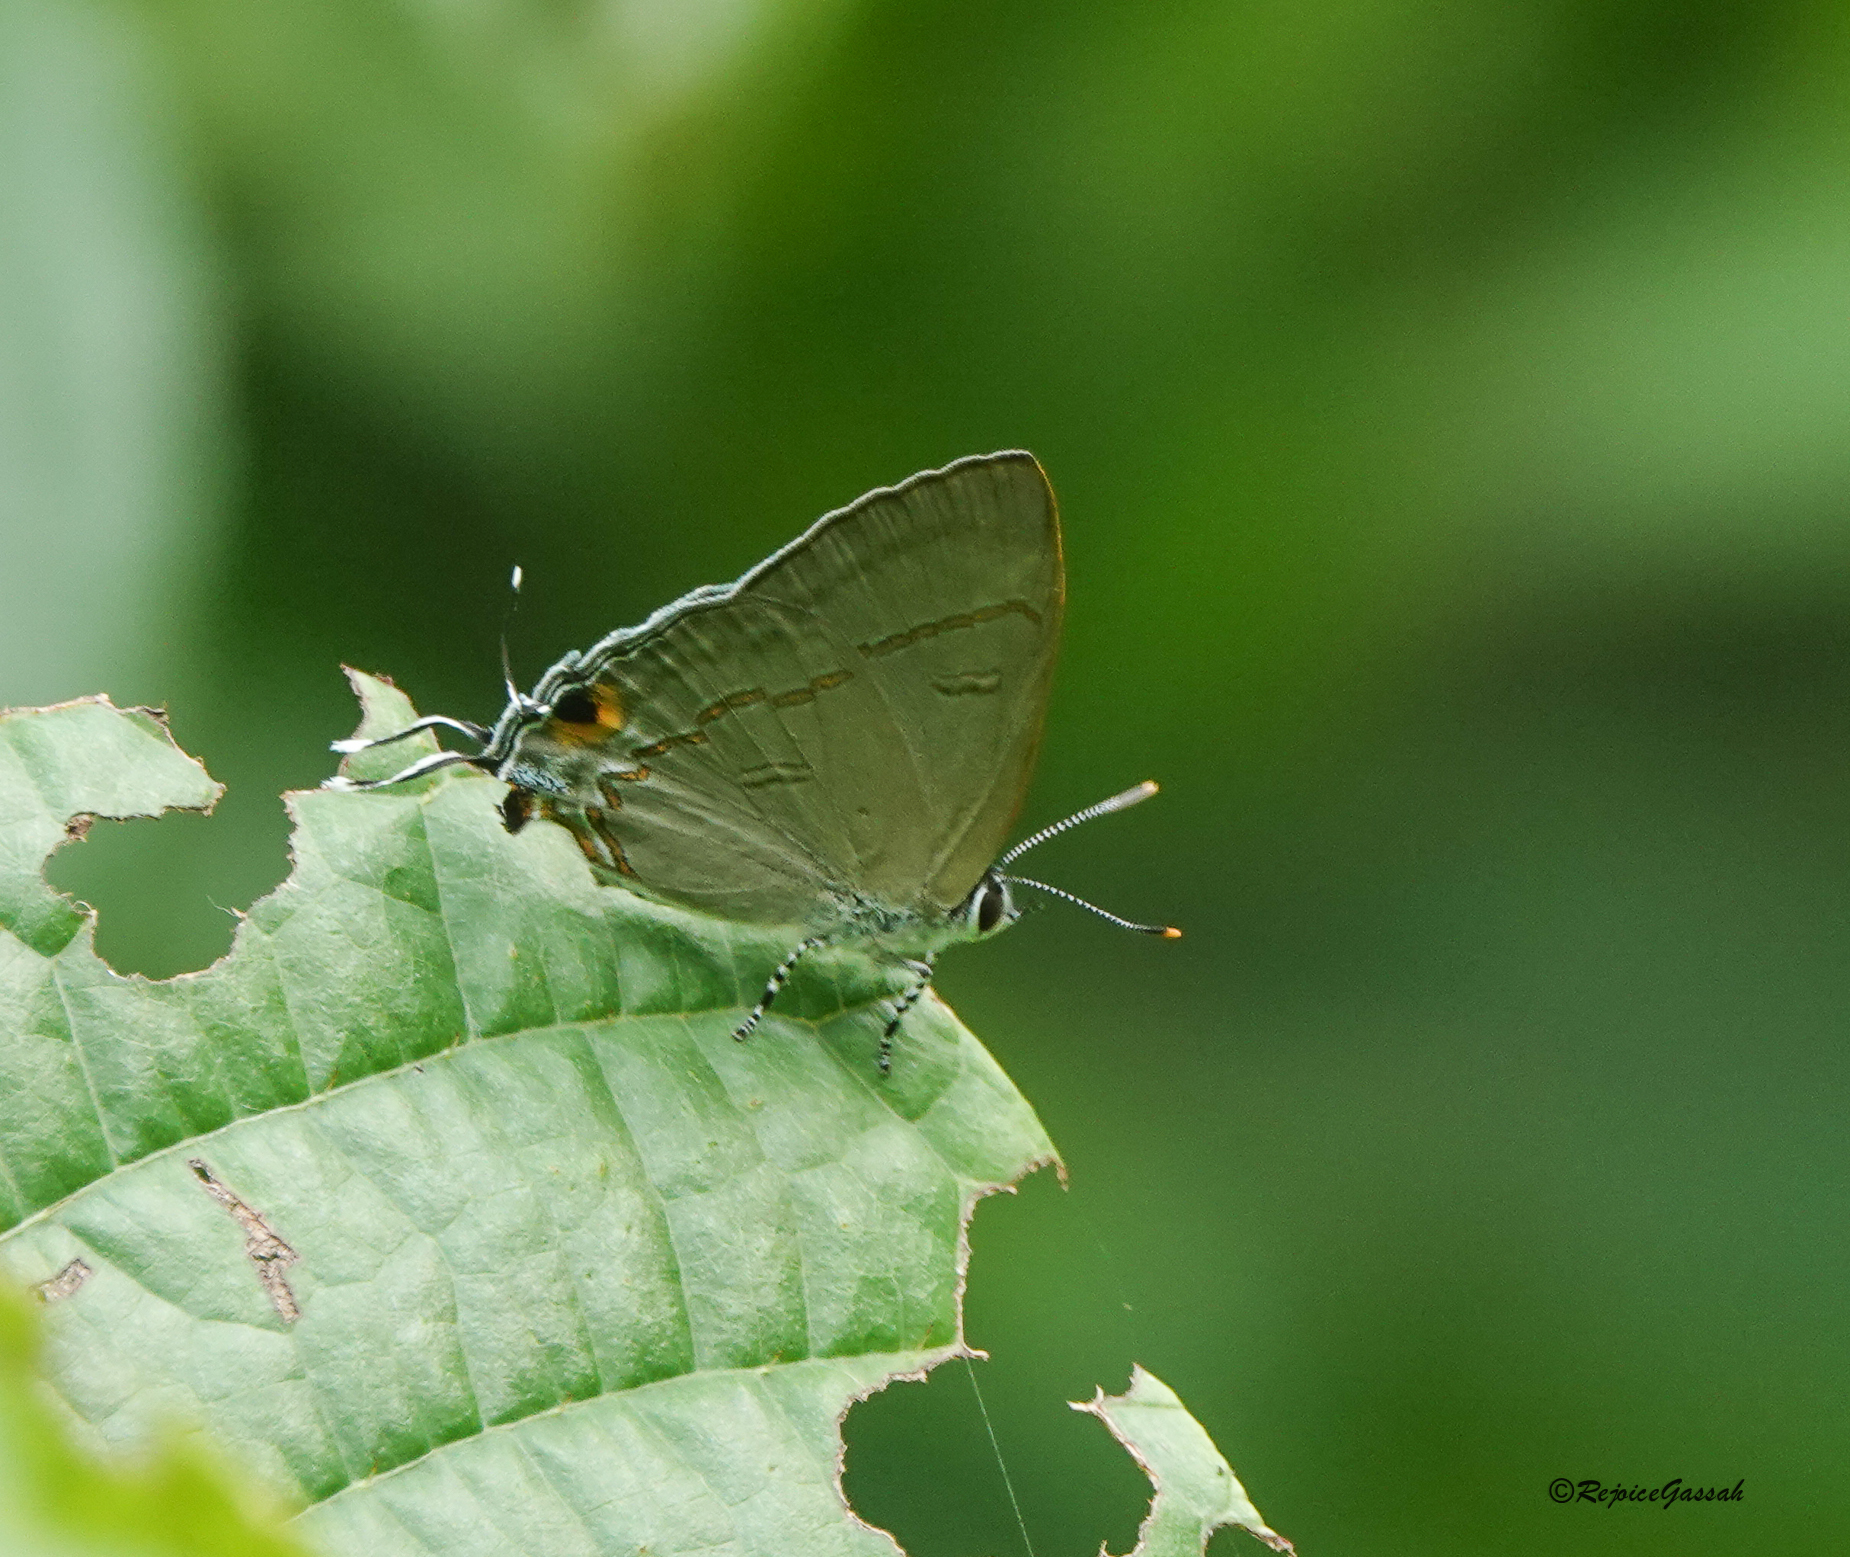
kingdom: Animalia
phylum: Arthropoda
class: Insecta
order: Lepidoptera
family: Lycaenidae
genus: Hypolycaena
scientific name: Hypolycaena erylus
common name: Common tit
